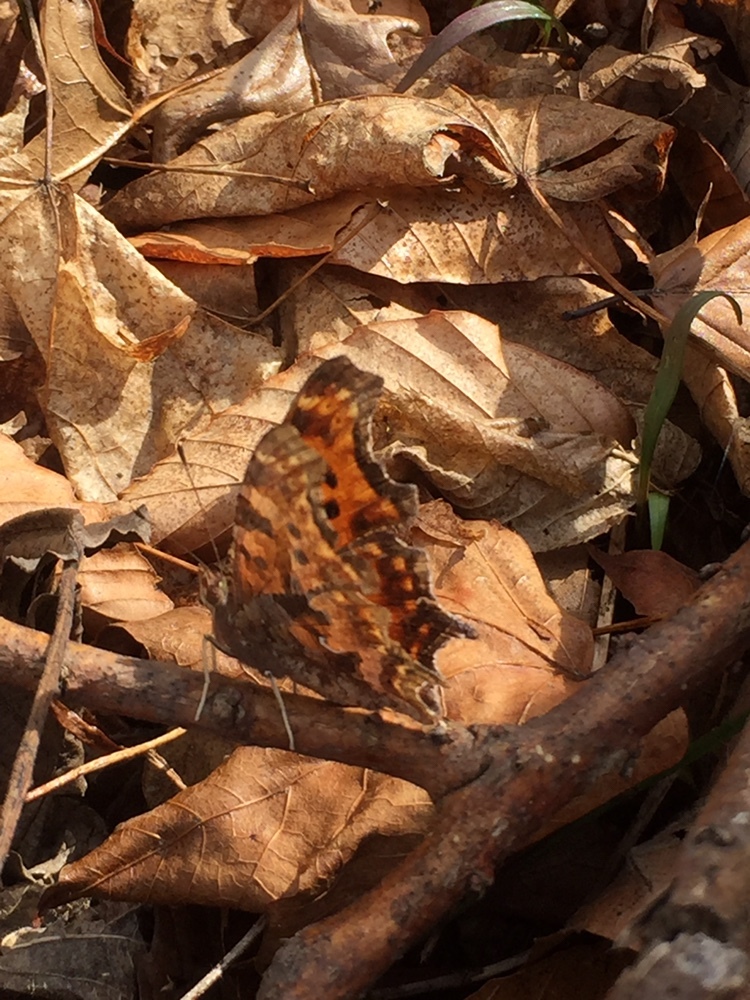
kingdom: Animalia
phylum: Arthropoda
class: Insecta
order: Lepidoptera
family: Nymphalidae
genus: Polygonia
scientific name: Polygonia comma
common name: Eastern comma
